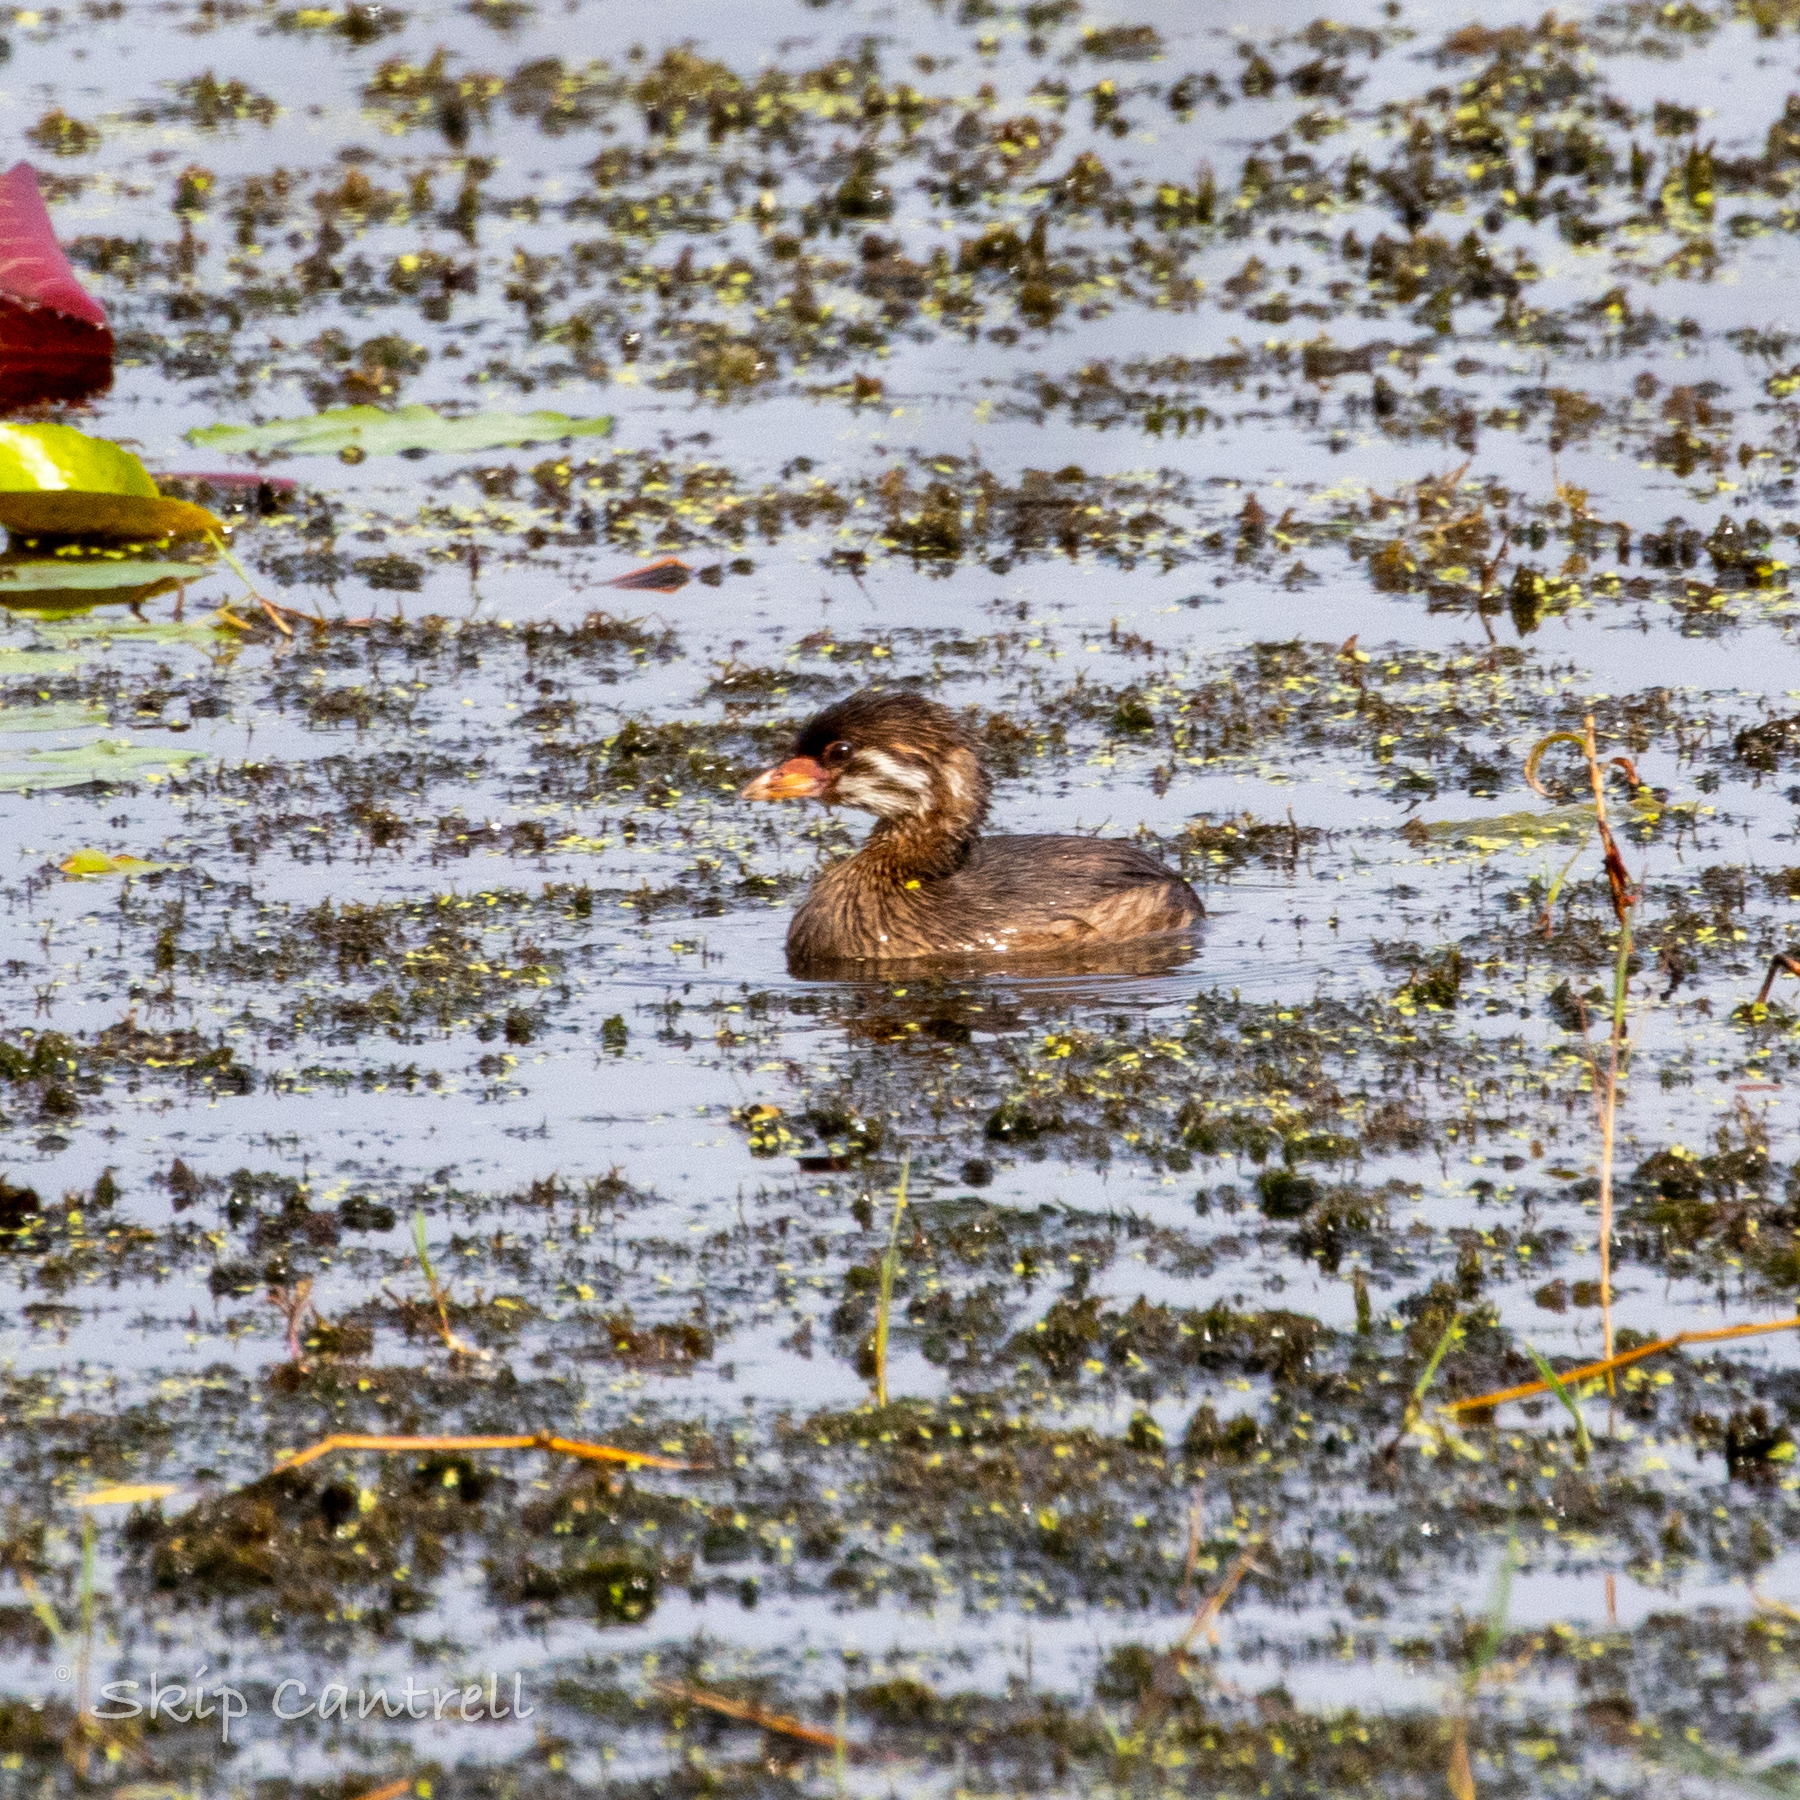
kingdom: Animalia
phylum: Chordata
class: Aves
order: Podicipediformes
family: Podicipedidae
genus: Podilymbus
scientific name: Podilymbus podiceps
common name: Pied-billed grebe
